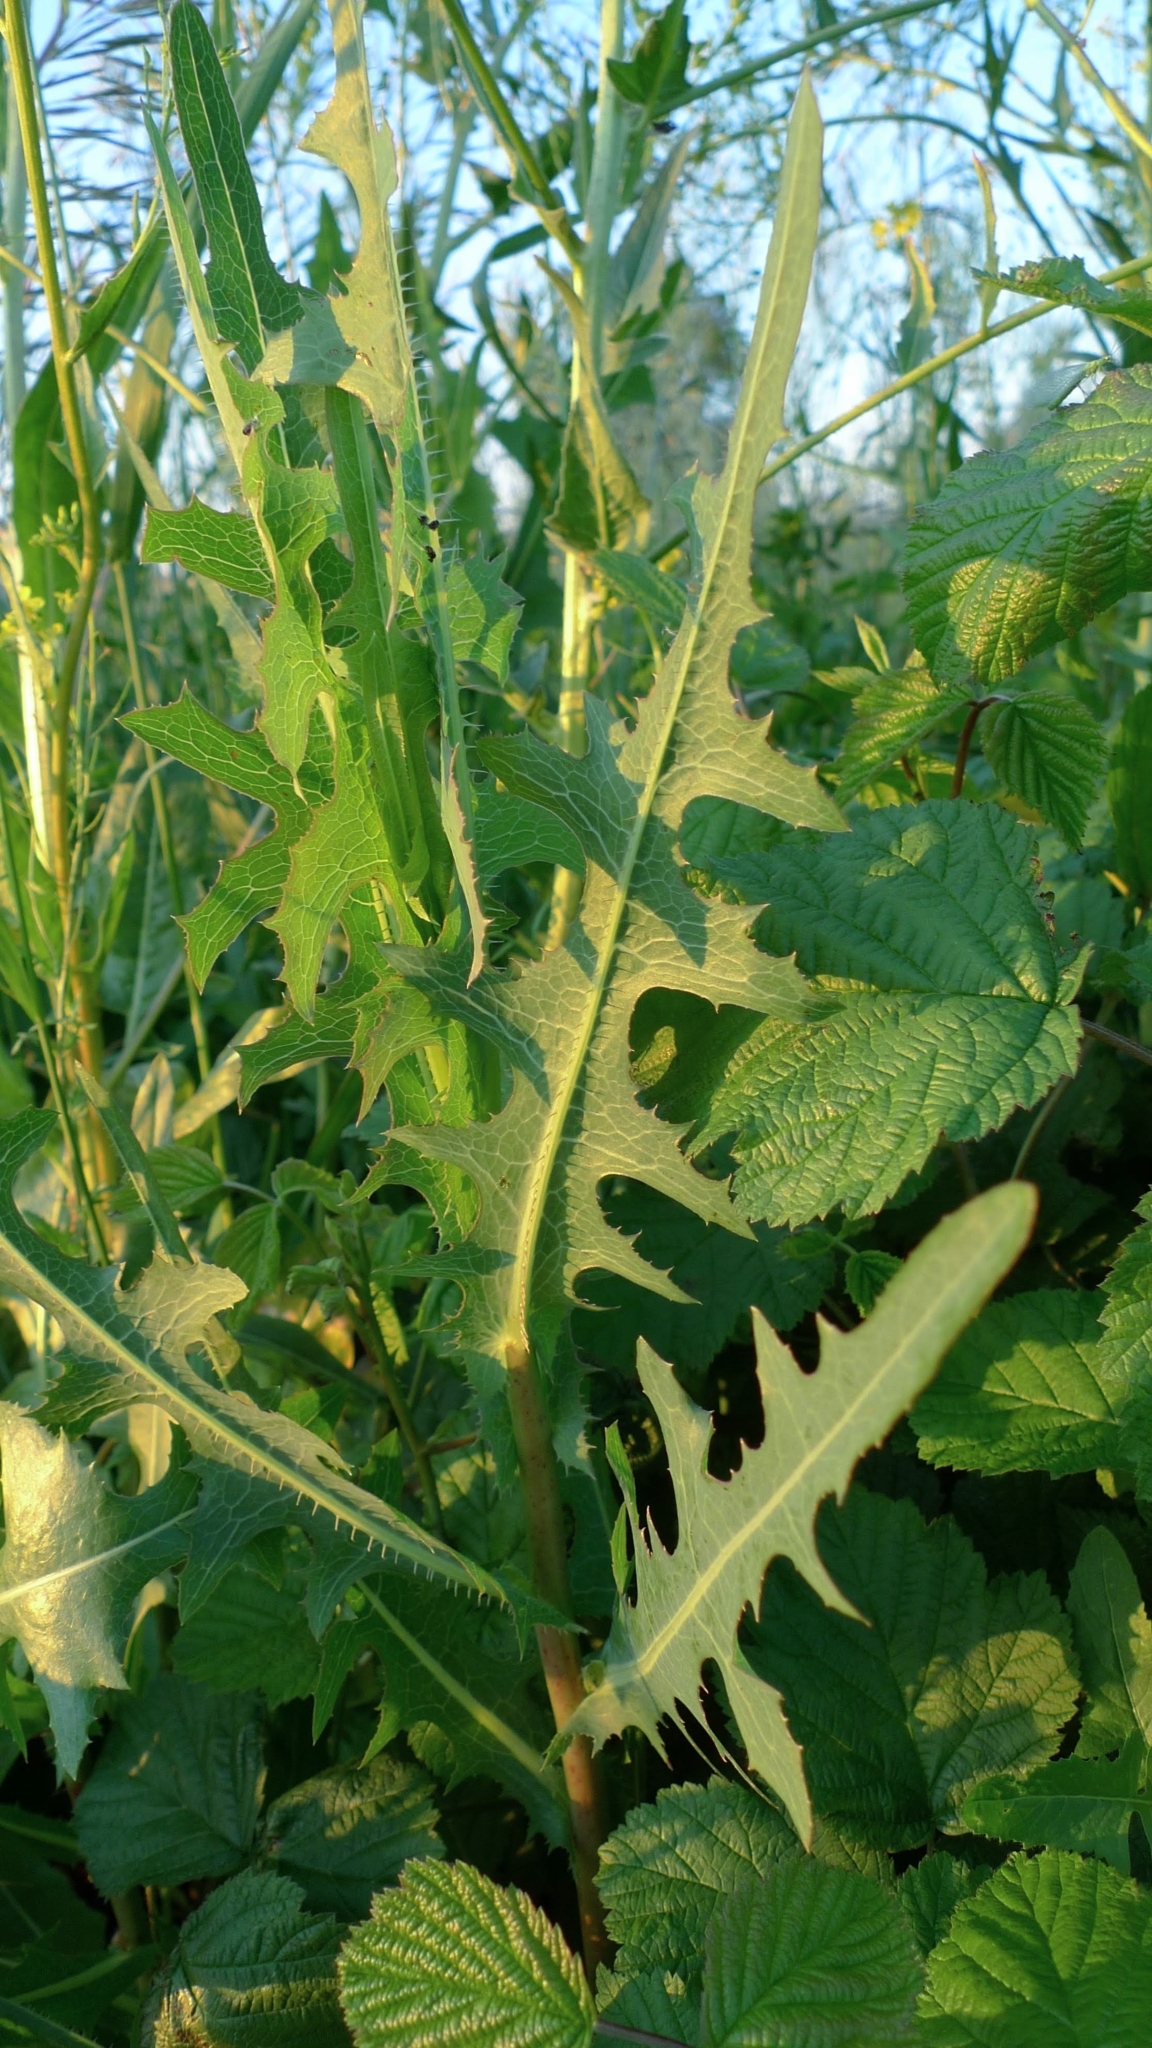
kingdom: Plantae
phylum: Tracheophyta
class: Magnoliopsida
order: Asterales
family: Asteraceae
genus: Lactuca
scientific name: Lactuca serriola
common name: Prickly lettuce
